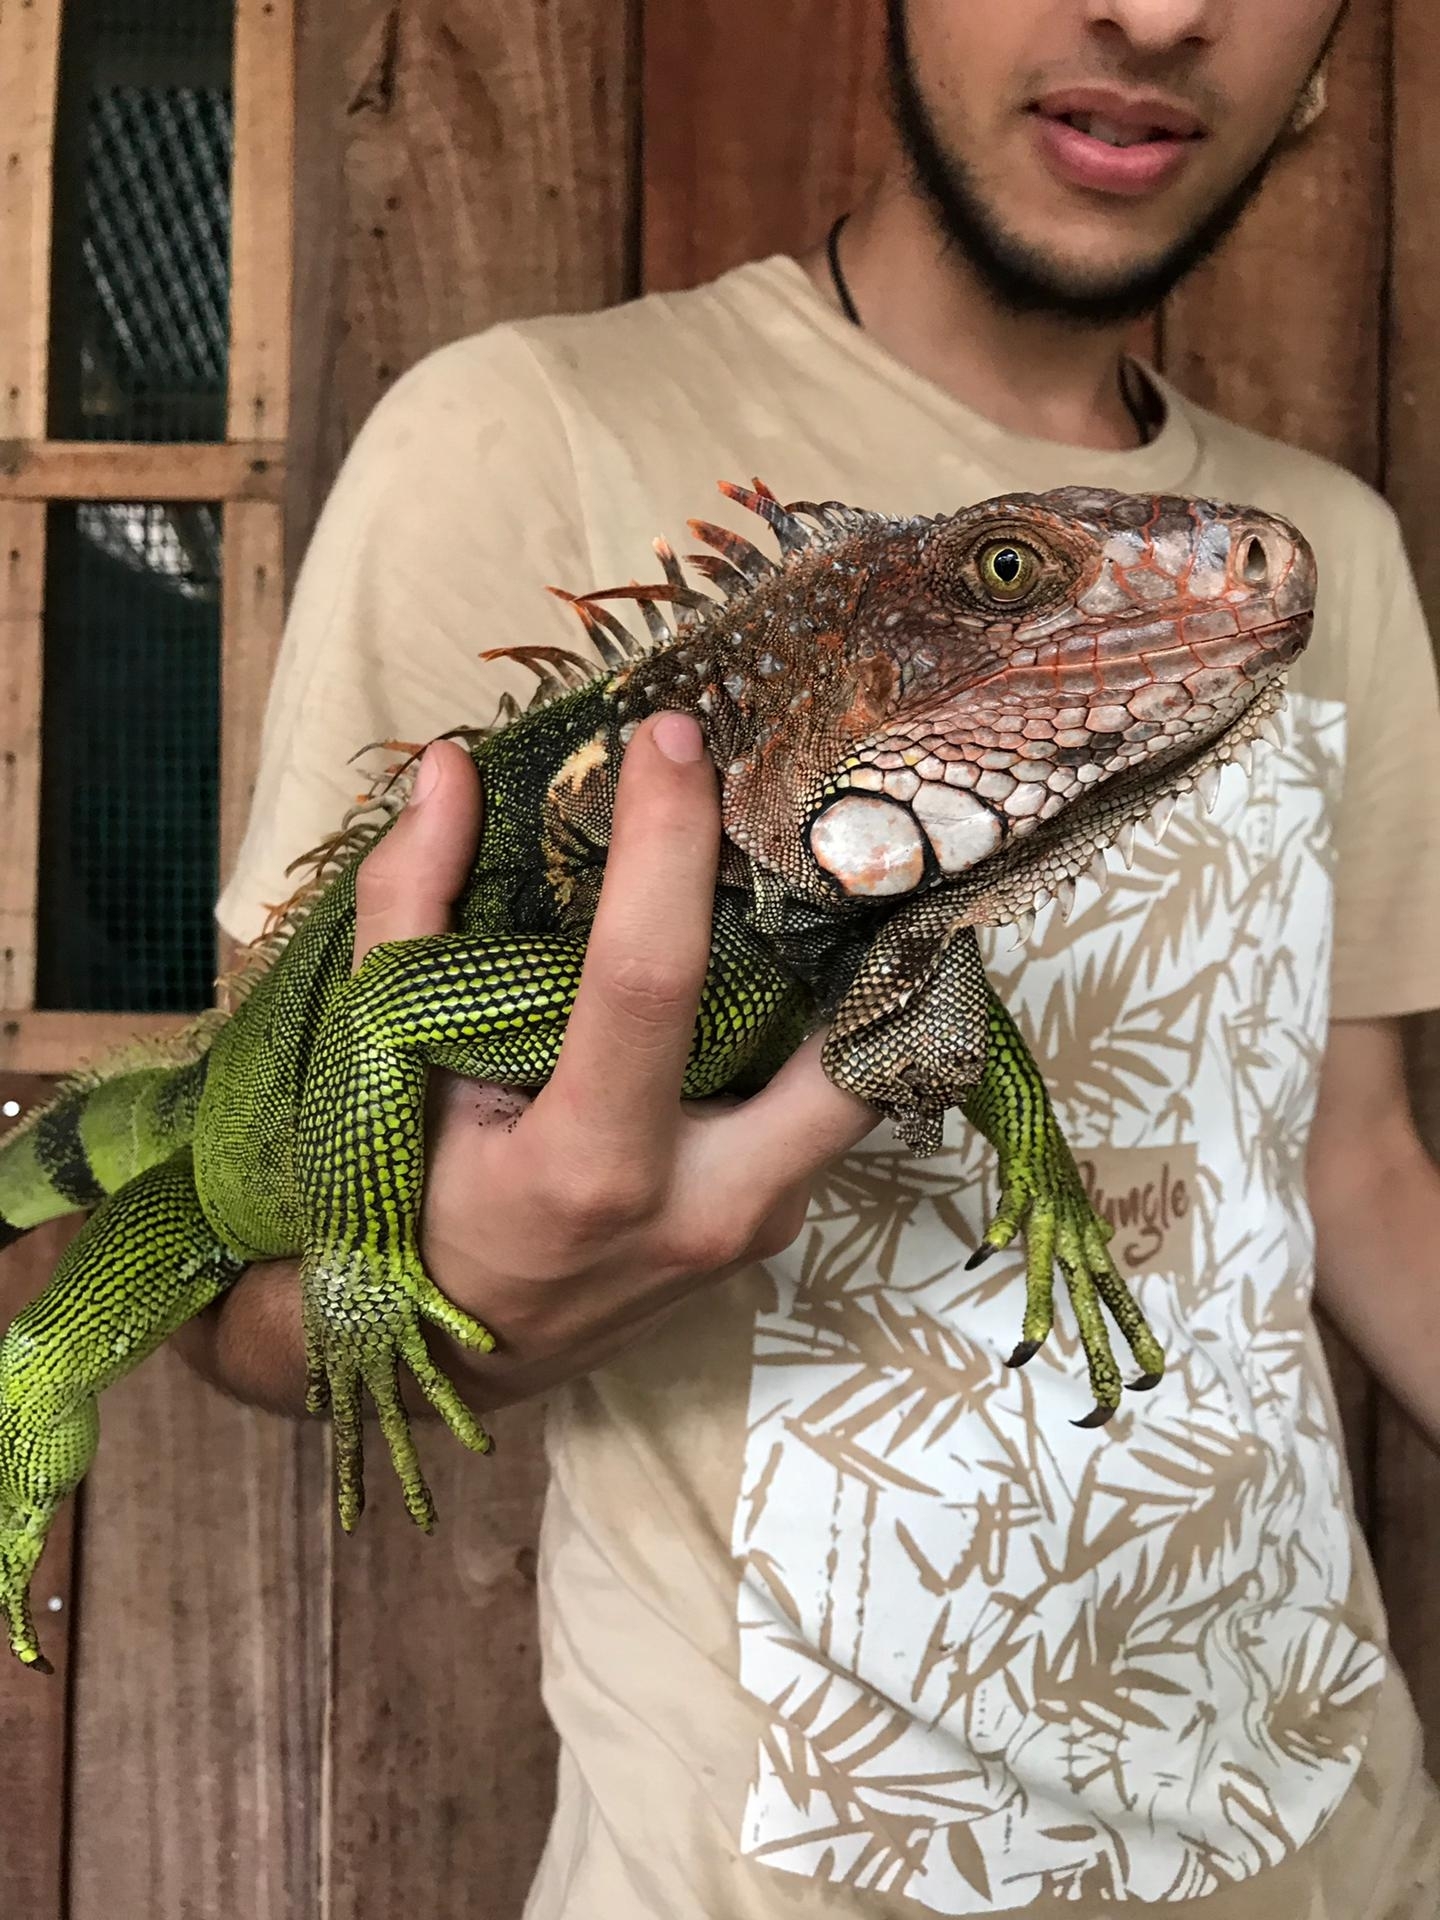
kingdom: Animalia
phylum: Chordata
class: Squamata
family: Iguanidae
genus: Iguana
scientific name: Iguana iguana
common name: Green iguana
